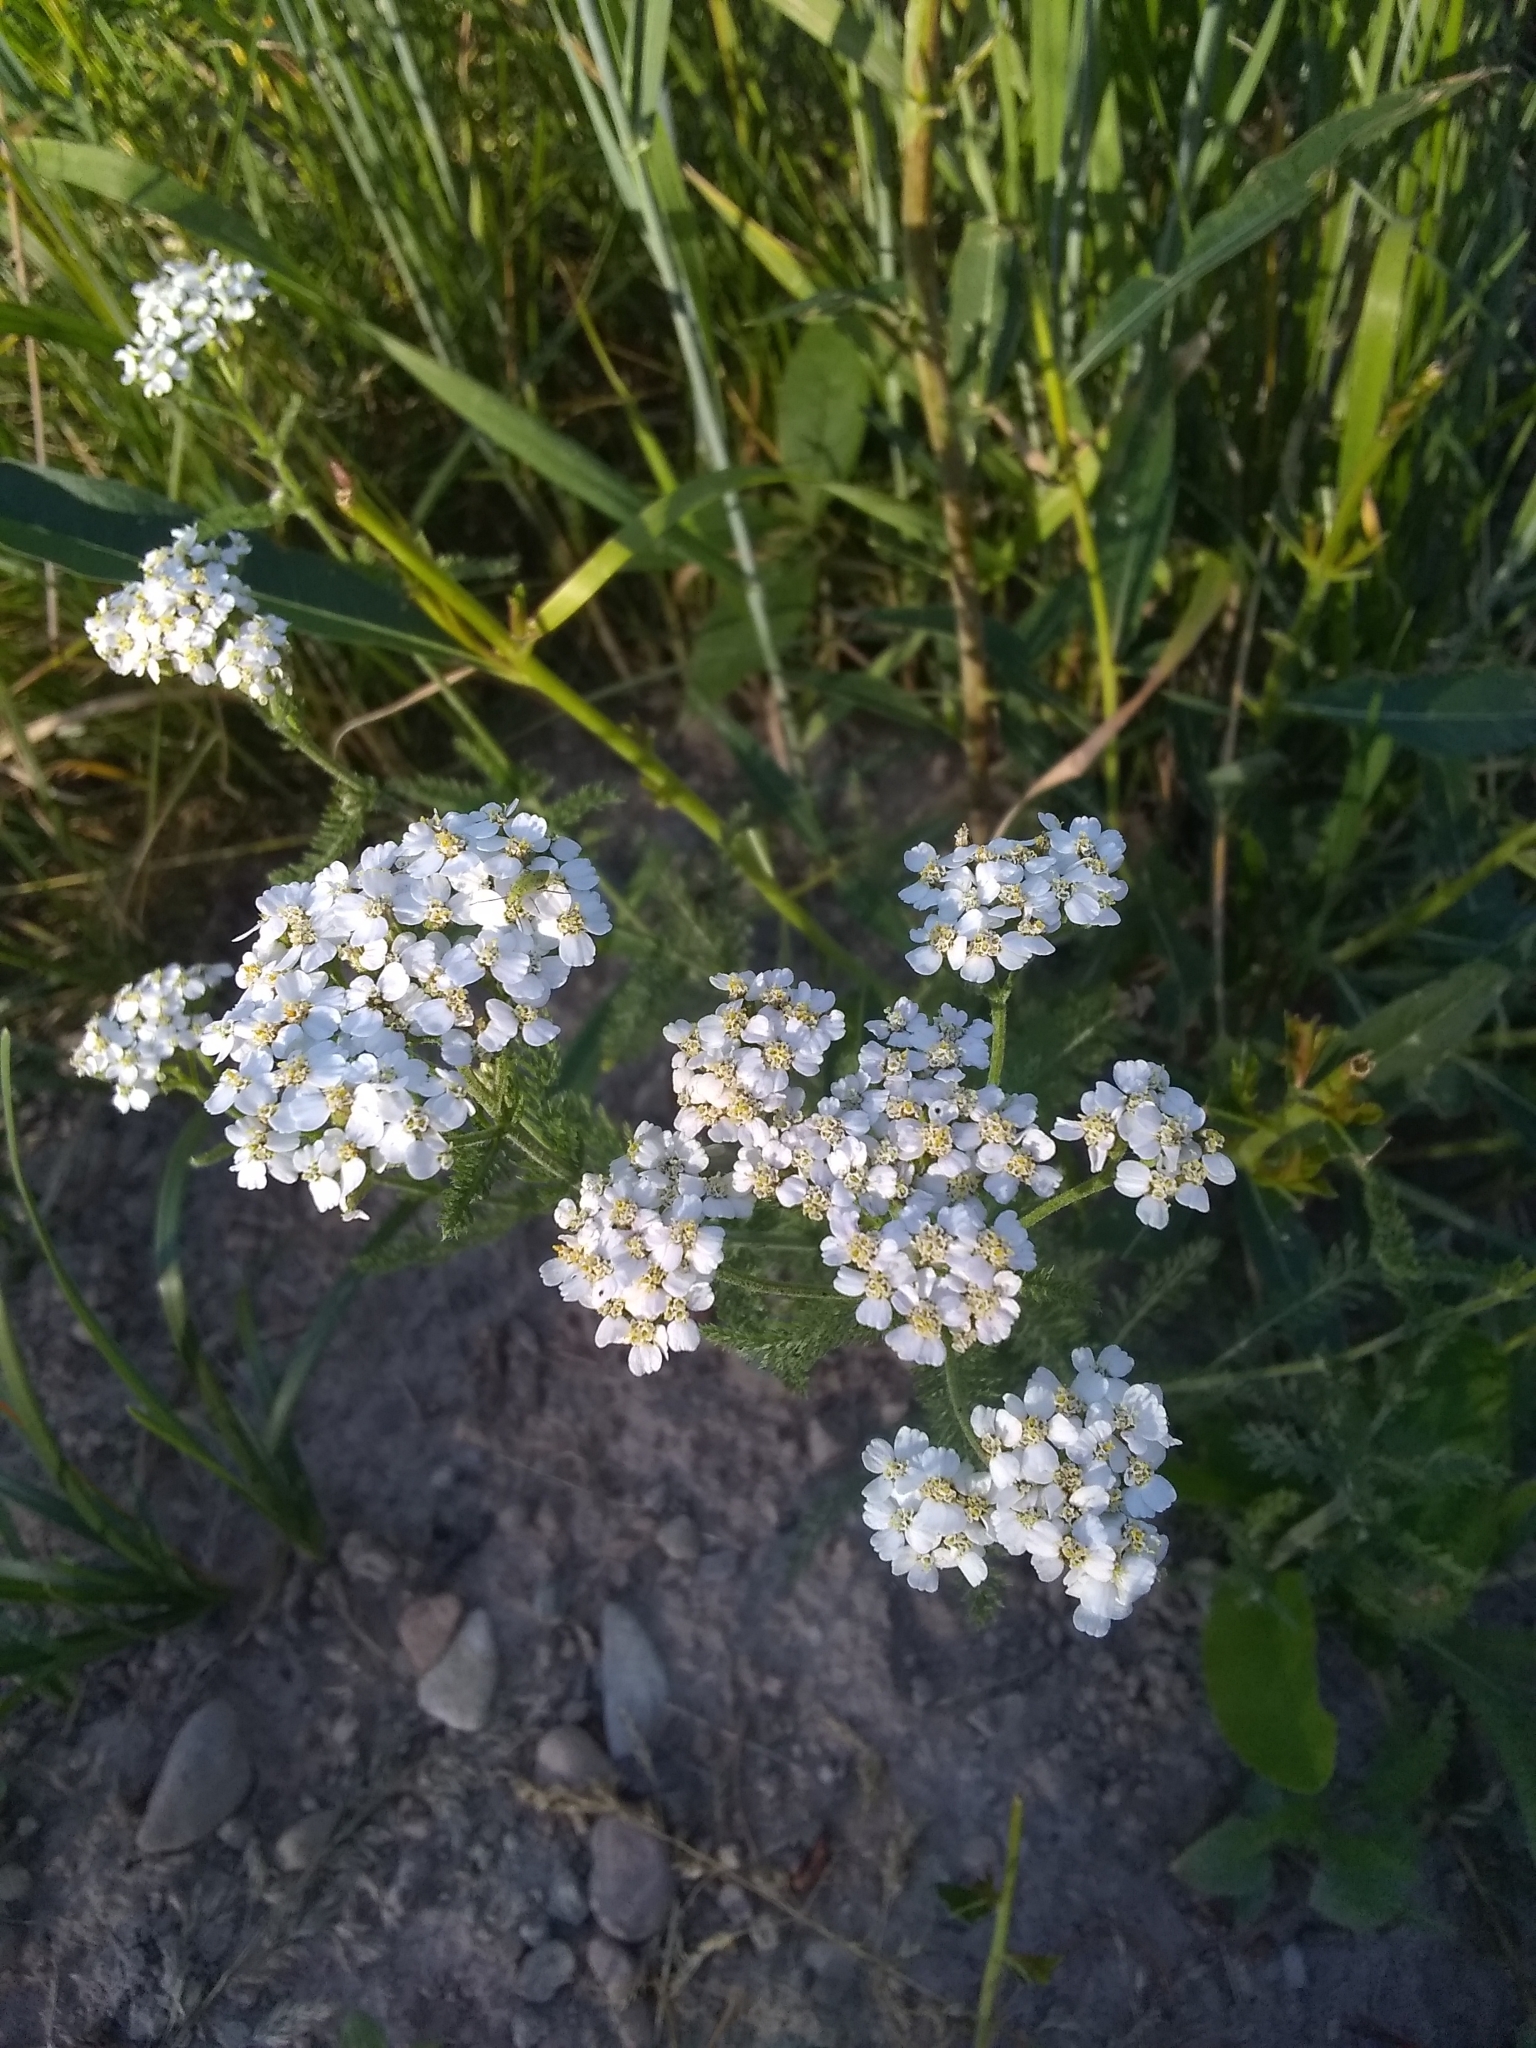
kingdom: Plantae
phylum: Tracheophyta
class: Magnoliopsida
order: Asterales
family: Asteraceae
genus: Achillea
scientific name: Achillea millefolium
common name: Yarrow
